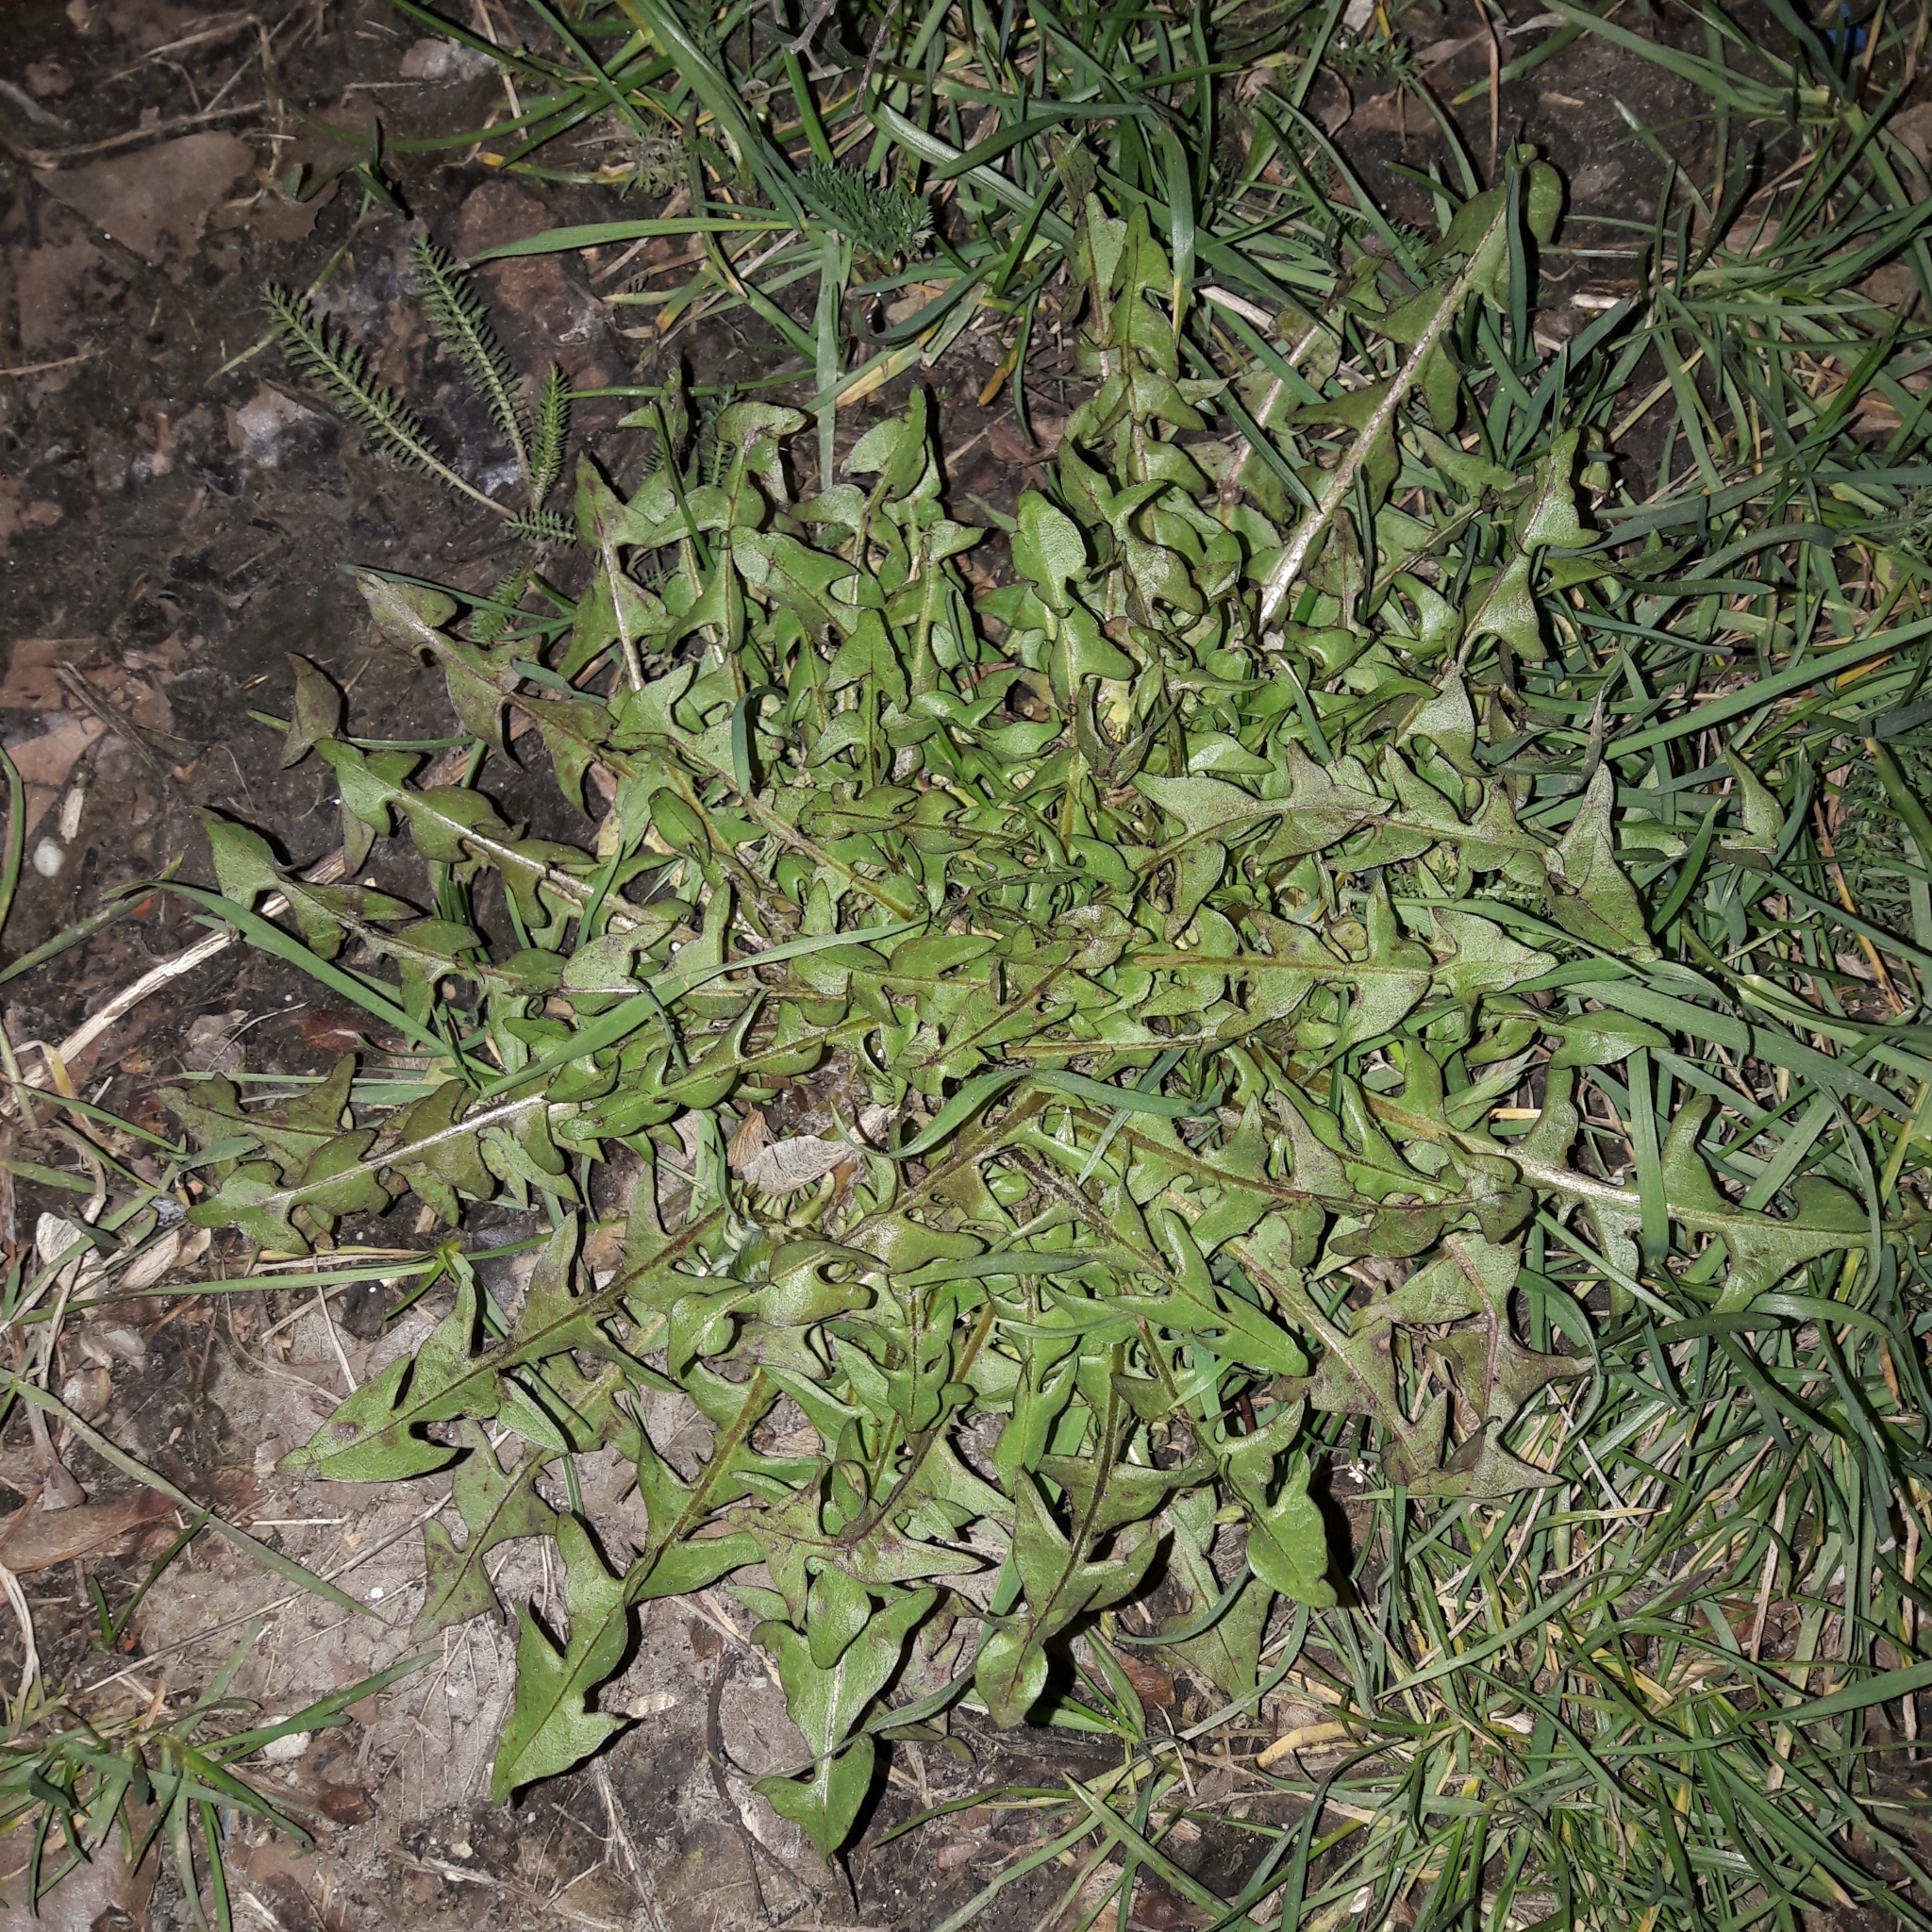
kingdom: Plantae
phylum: Tracheophyta
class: Magnoliopsida
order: Asterales
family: Asteraceae
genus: Taraxacum
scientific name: Taraxacum officinale
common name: Common dandelion
